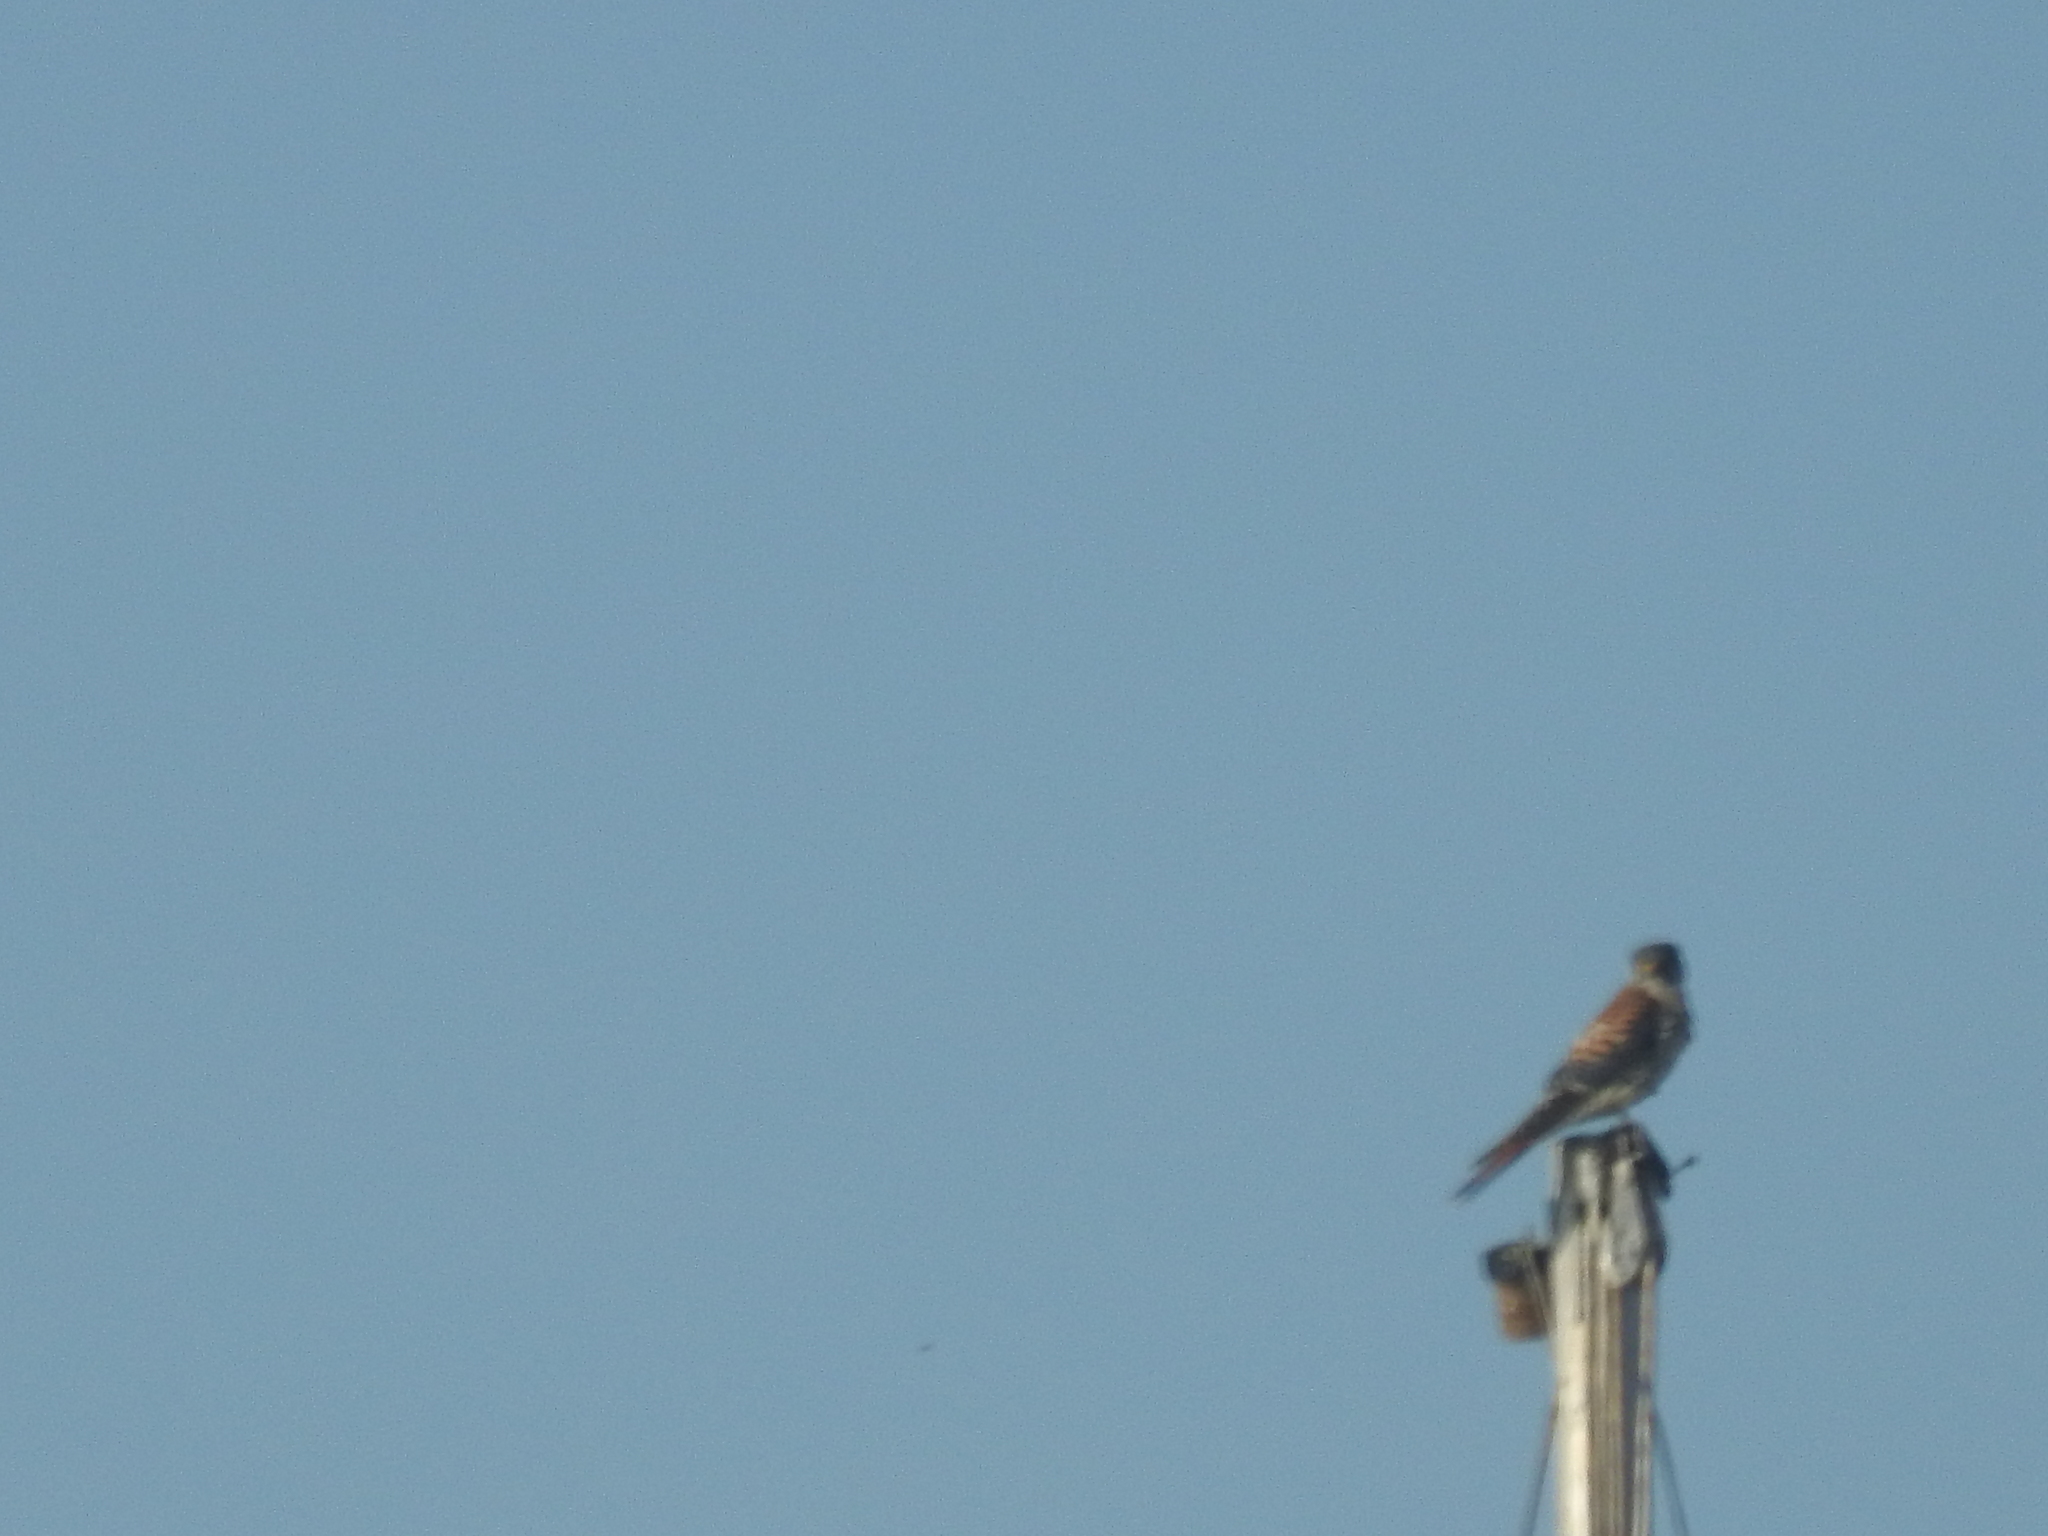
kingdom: Animalia
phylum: Chordata
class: Aves
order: Falconiformes
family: Falconidae
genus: Falco
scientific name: Falco sparverius
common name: American kestrel
